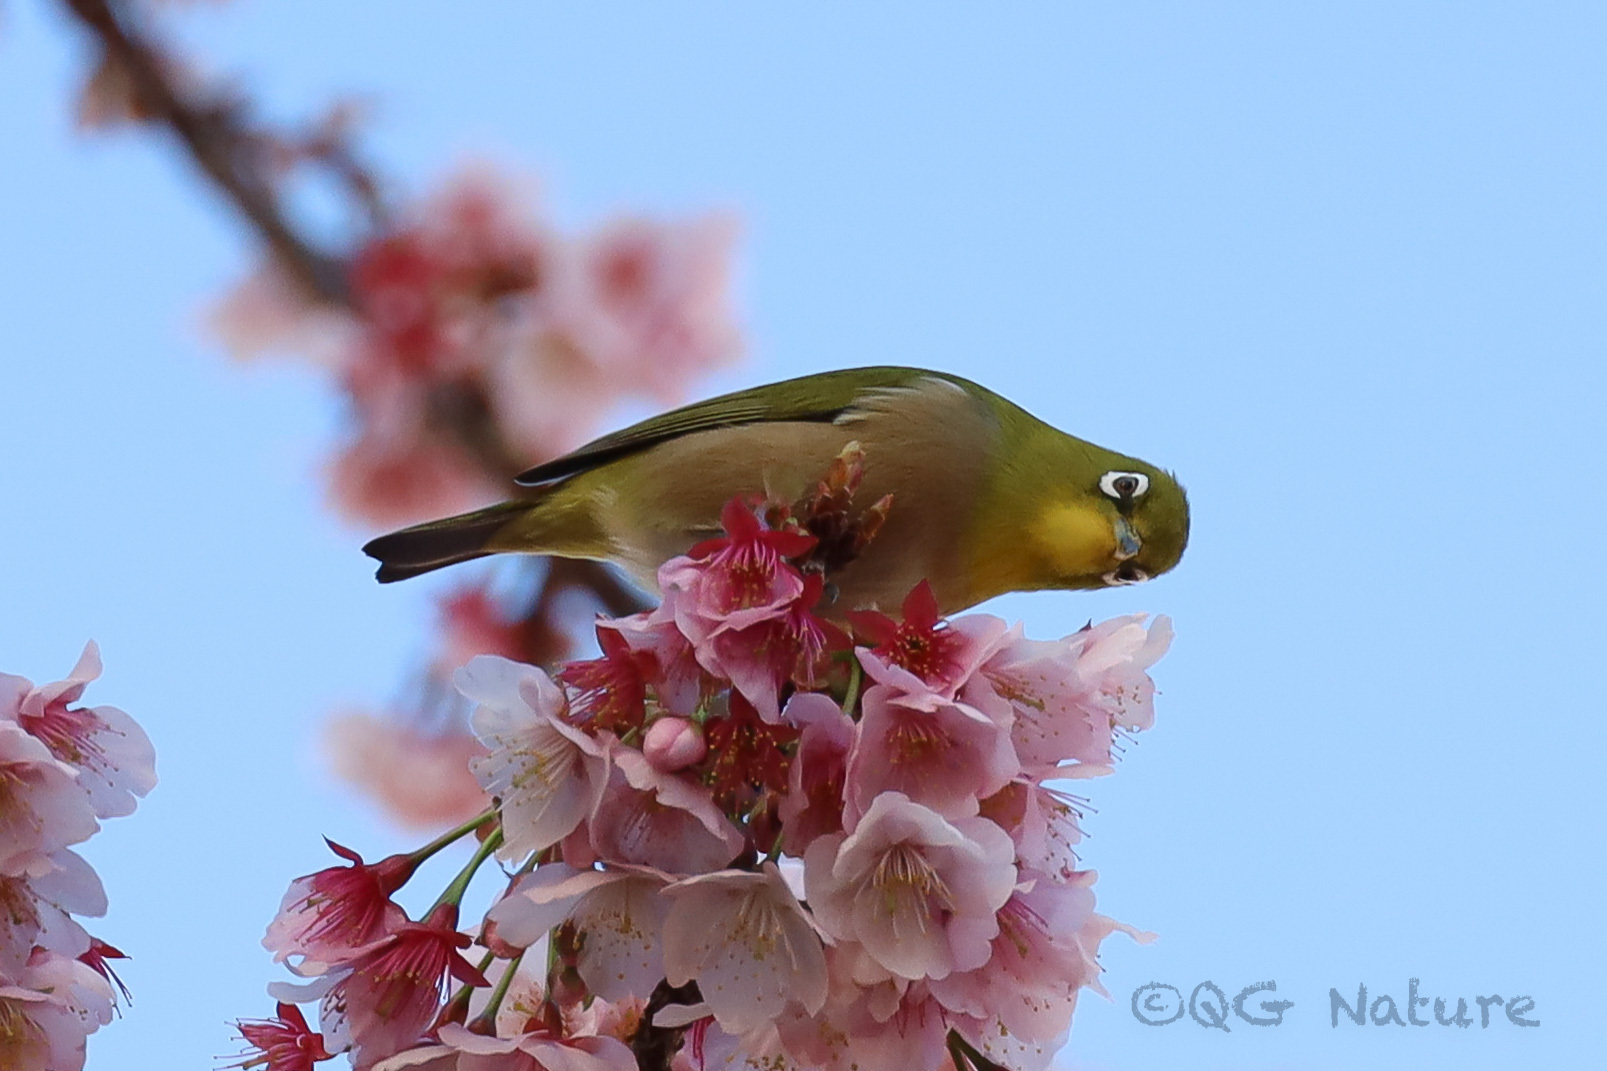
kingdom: Animalia
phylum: Chordata
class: Aves
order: Passeriformes
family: Zosteropidae
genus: Zosterops
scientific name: Zosterops japonicus
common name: Japanese white-eye
